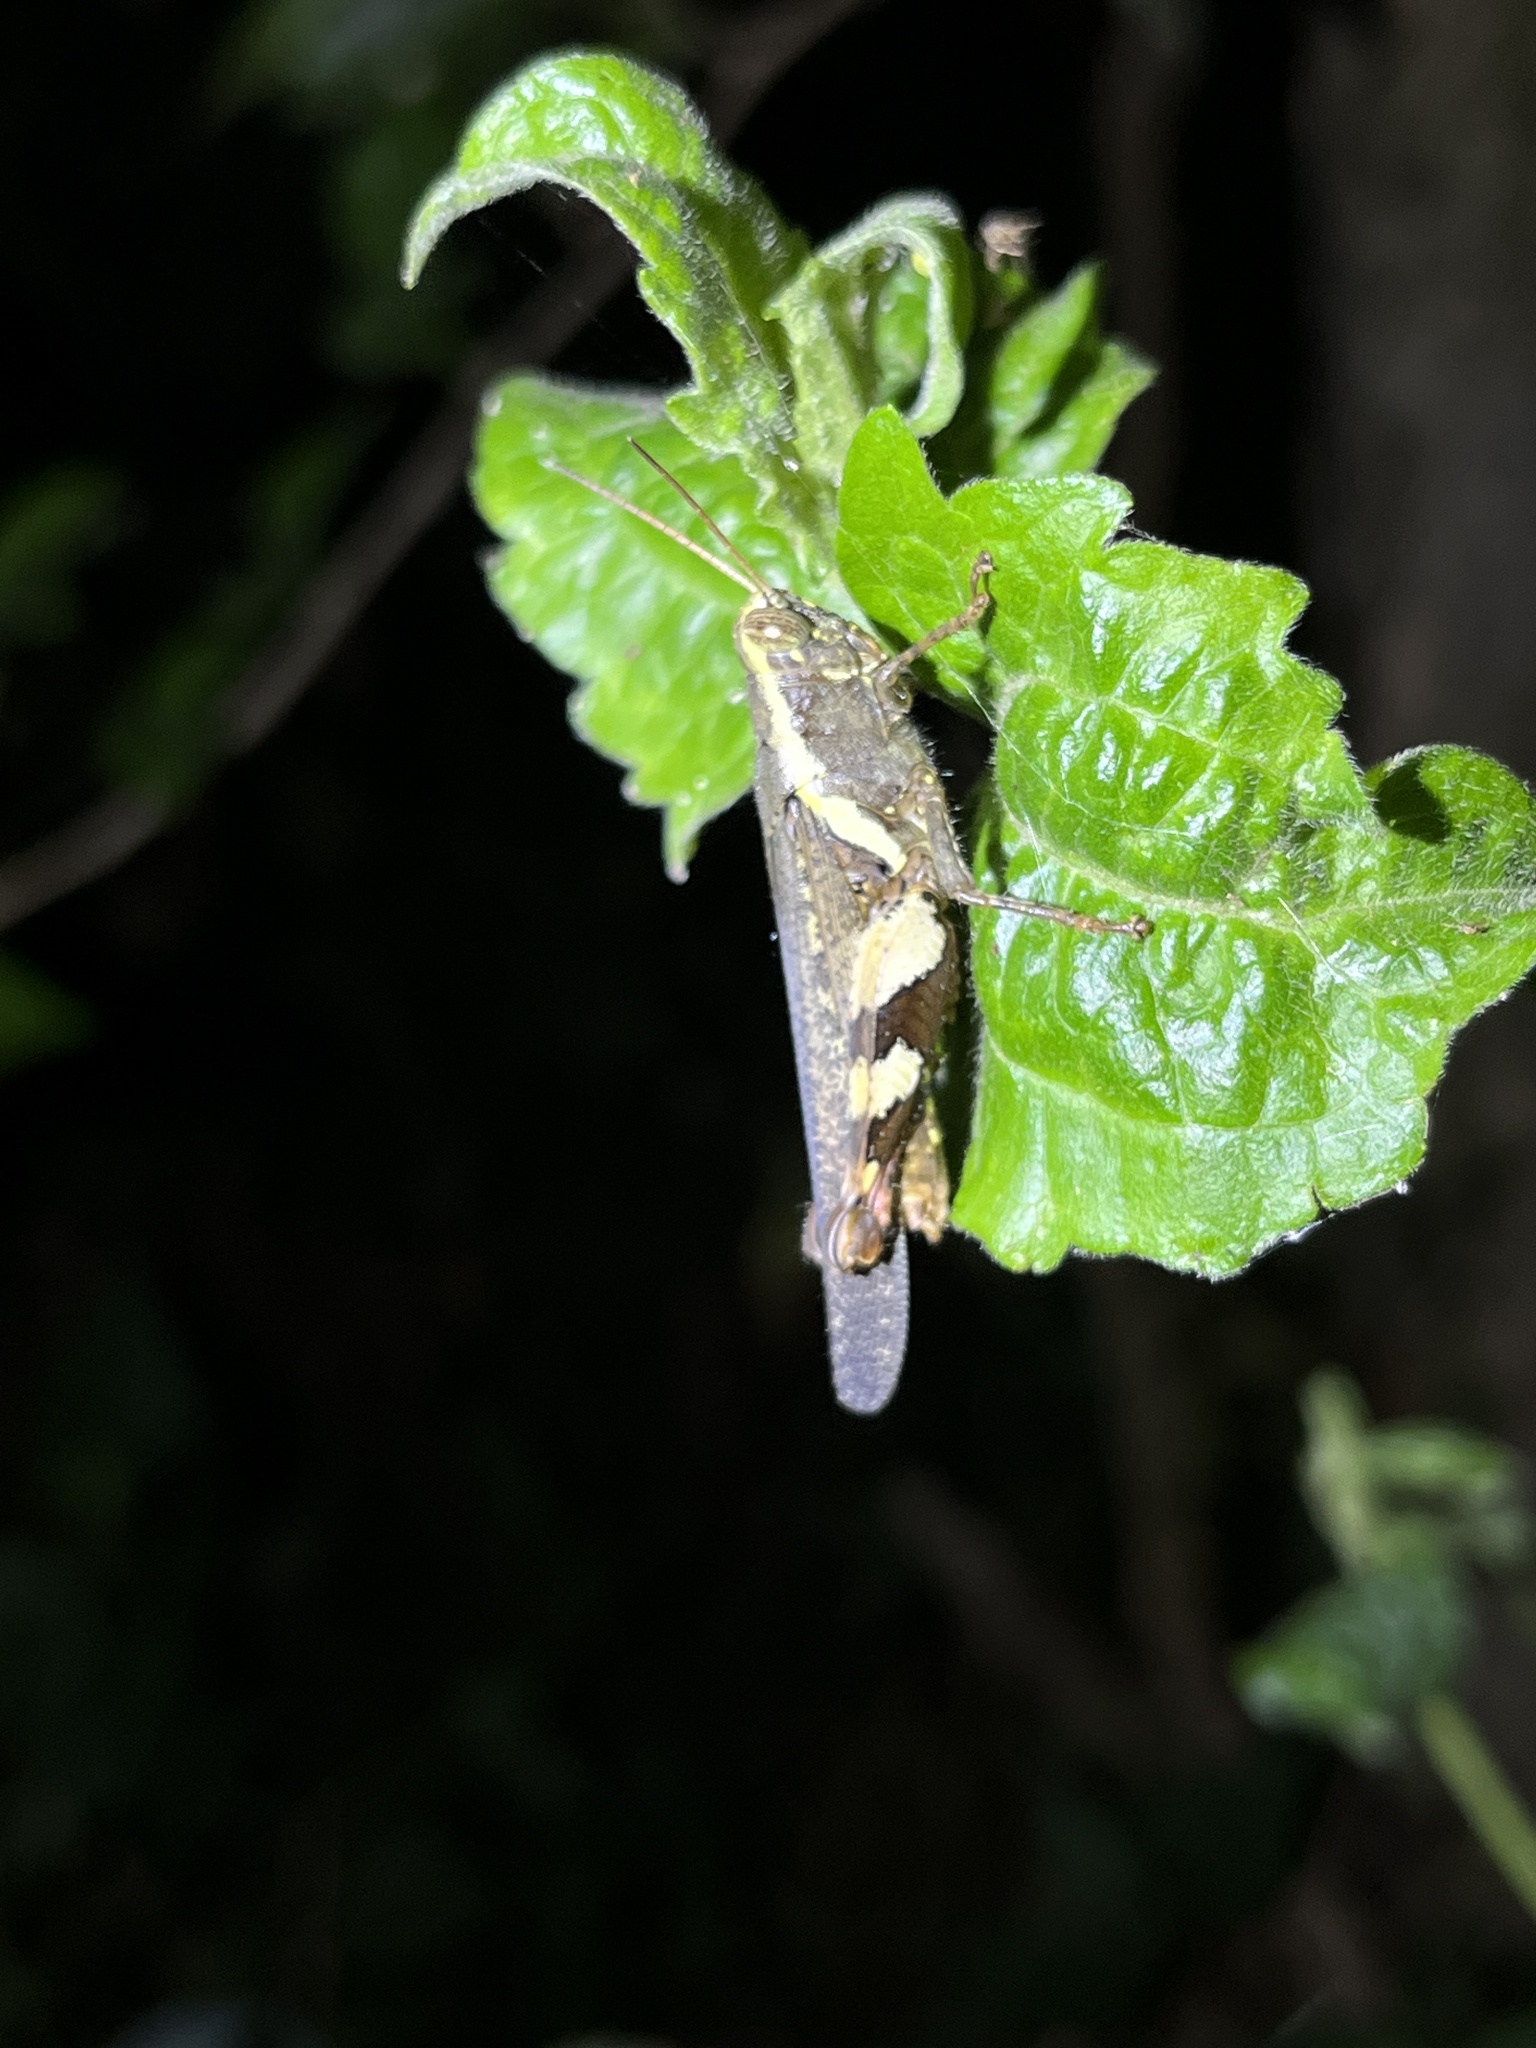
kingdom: Animalia
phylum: Arthropoda
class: Insecta
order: Orthoptera
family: Acrididae
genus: Xenocatantops
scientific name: Xenocatantops humile
